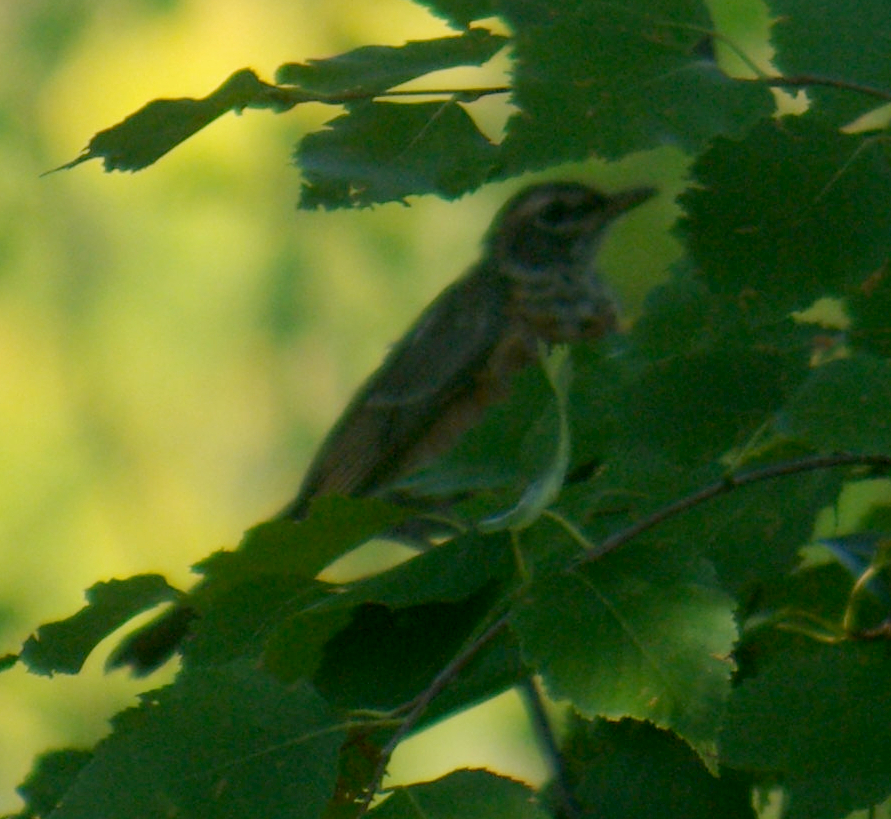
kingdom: Animalia
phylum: Chordata
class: Aves
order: Passeriformes
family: Turdidae
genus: Turdus
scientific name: Turdus migratorius
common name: American robin
